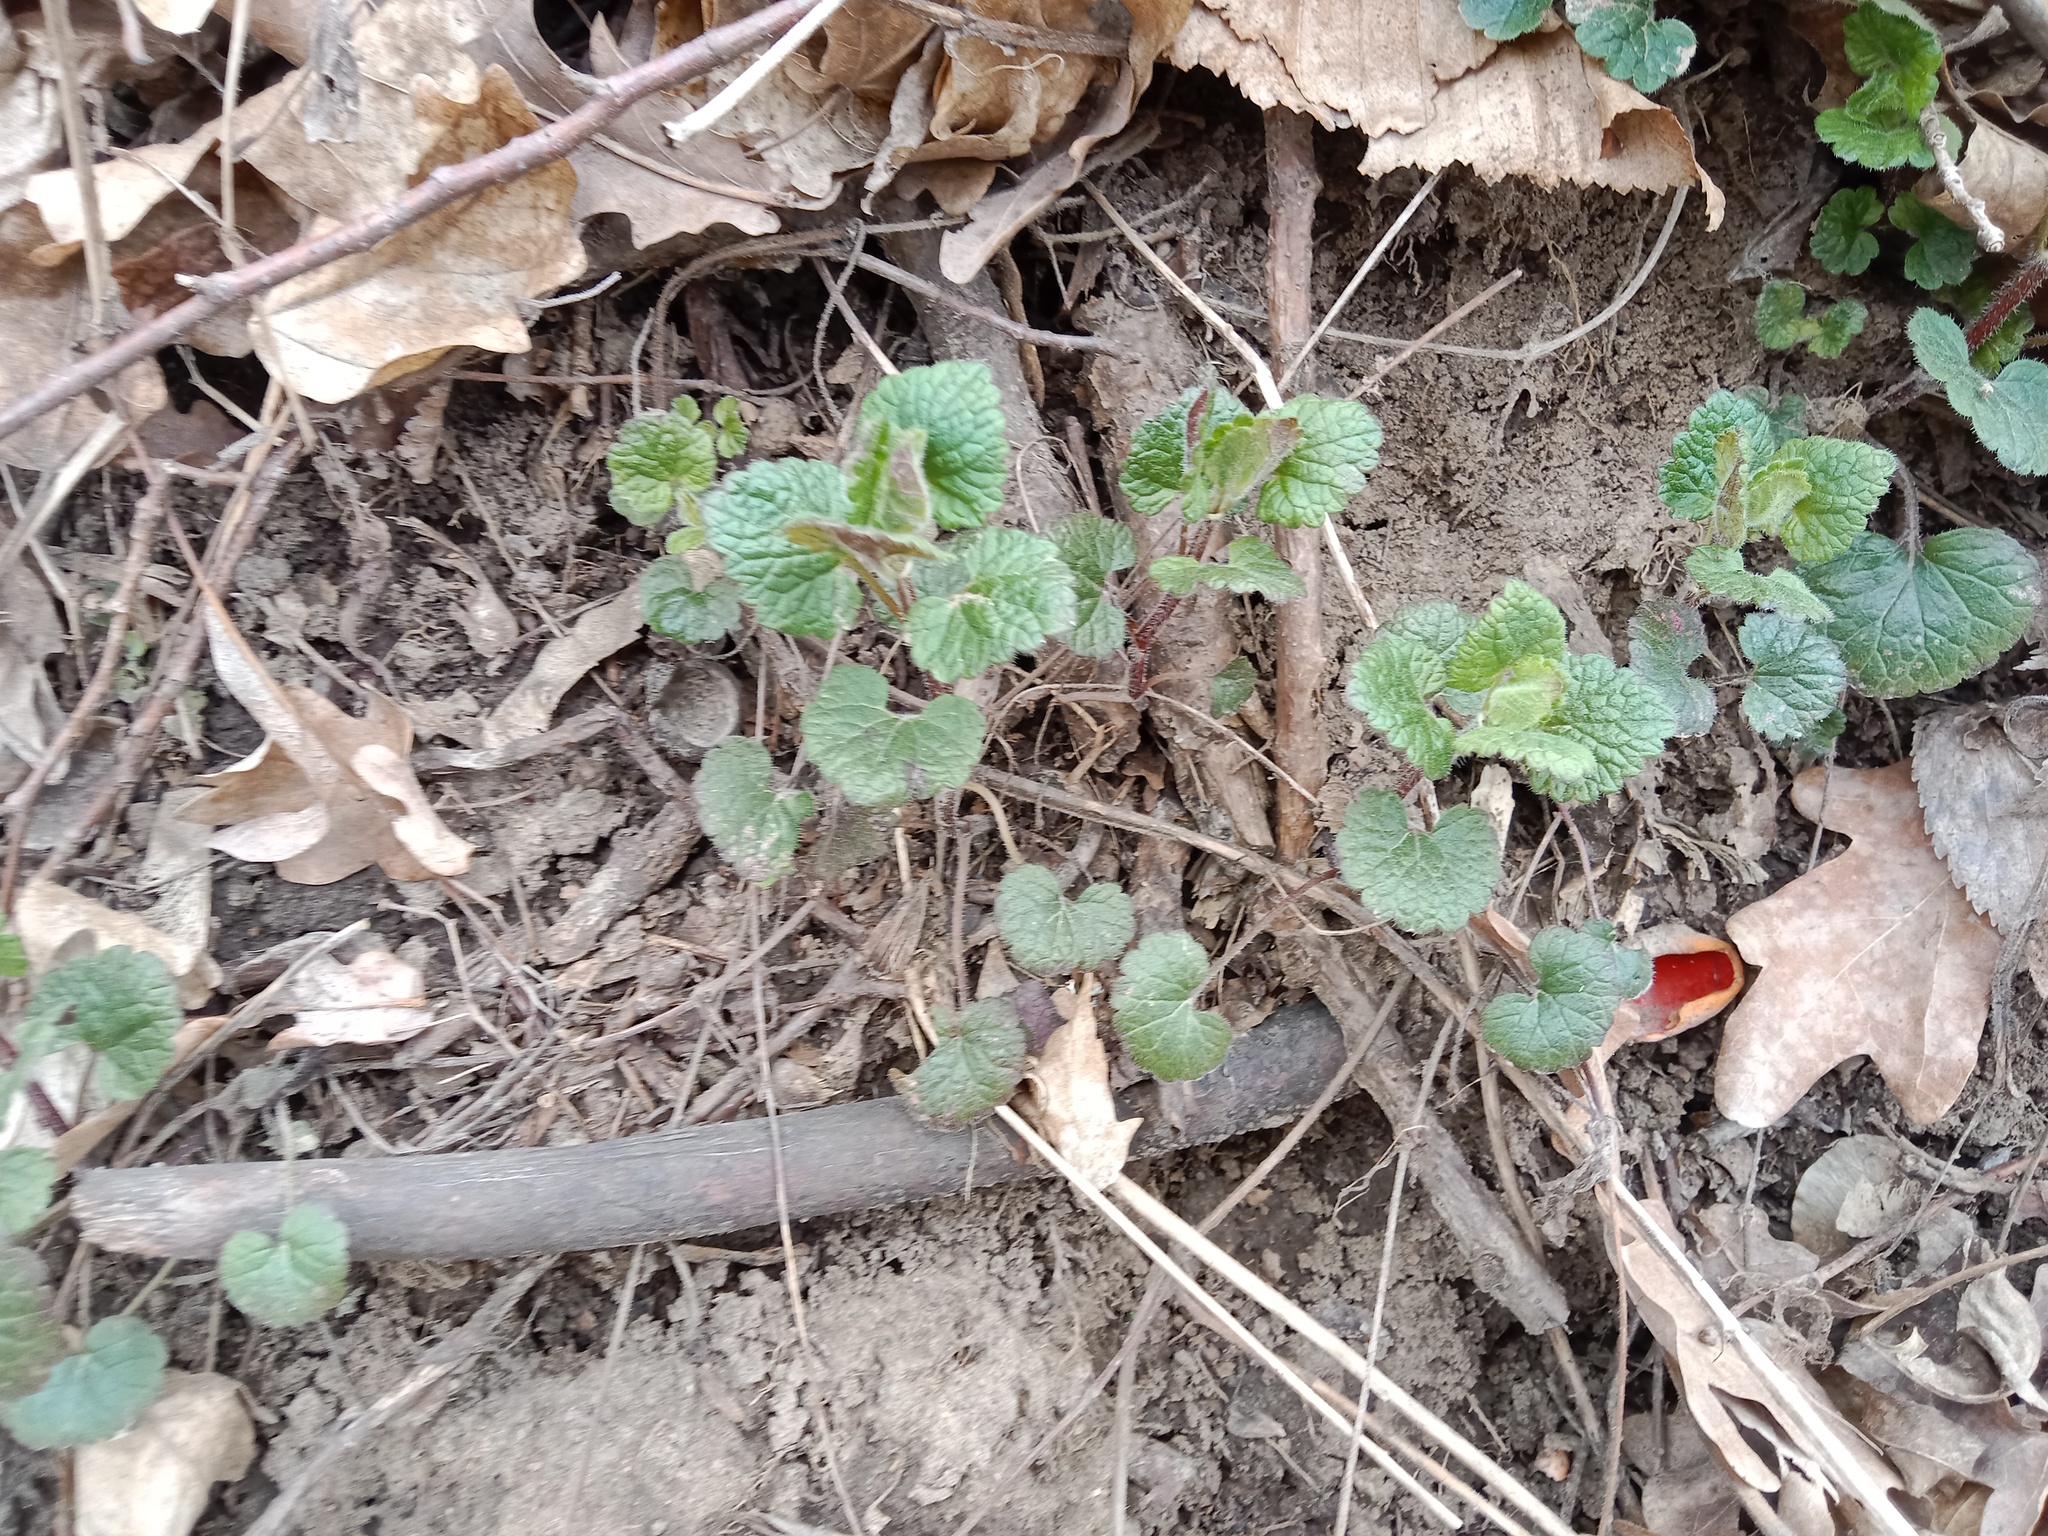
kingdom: Plantae
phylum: Tracheophyta
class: Magnoliopsida
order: Lamiales
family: Lamiaceae
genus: Glechoma
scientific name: Glechoma hirsuta
